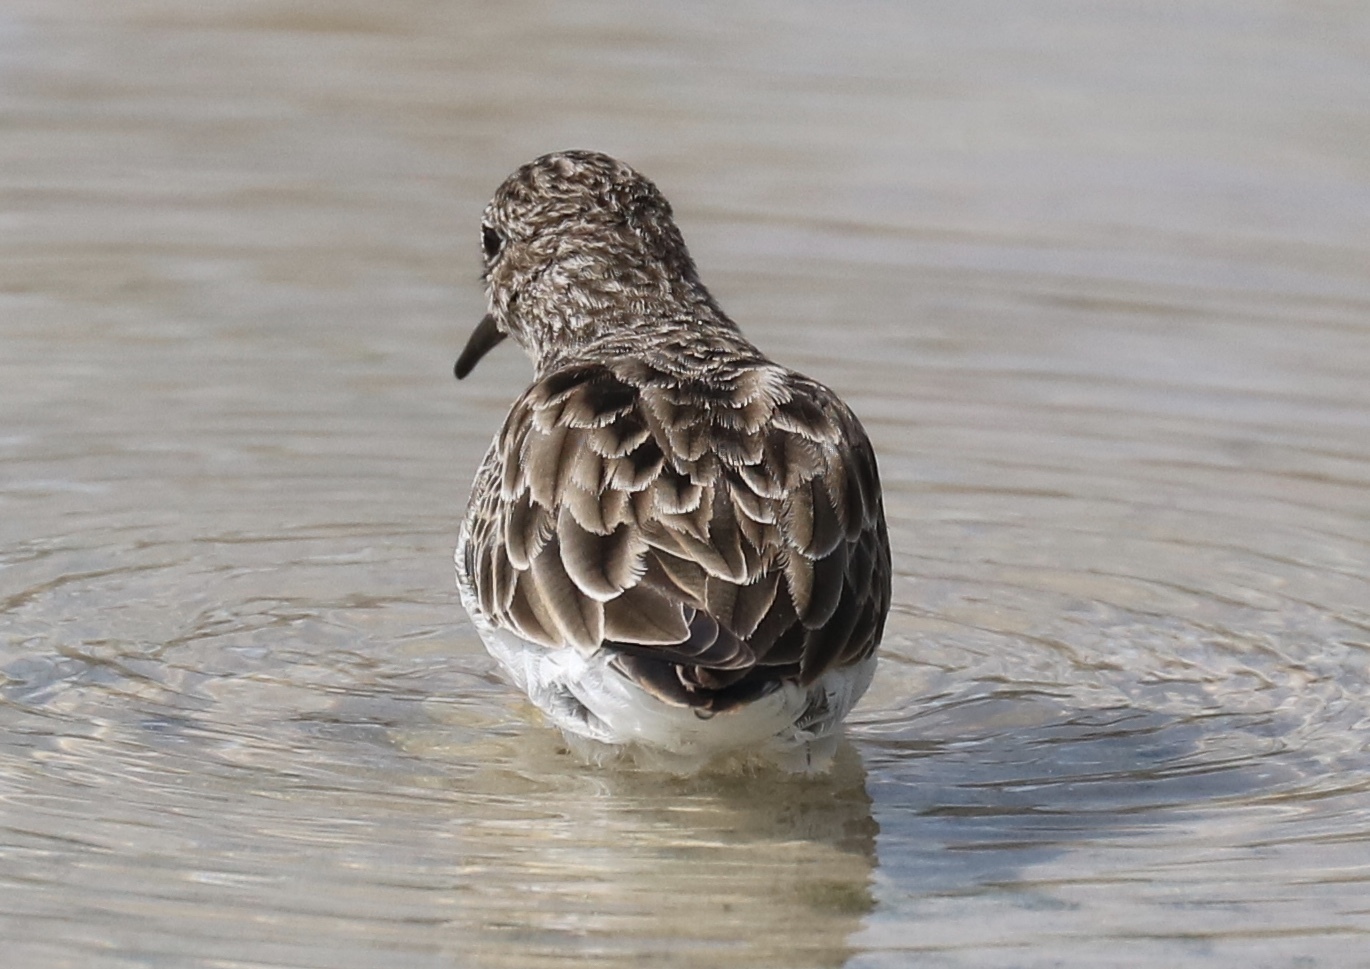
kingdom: Animalia
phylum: Chordata
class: Aves
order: Charadriiformes
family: Scolopacidae
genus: Calidris
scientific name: Calidris minutilla
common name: Least sandpiper
